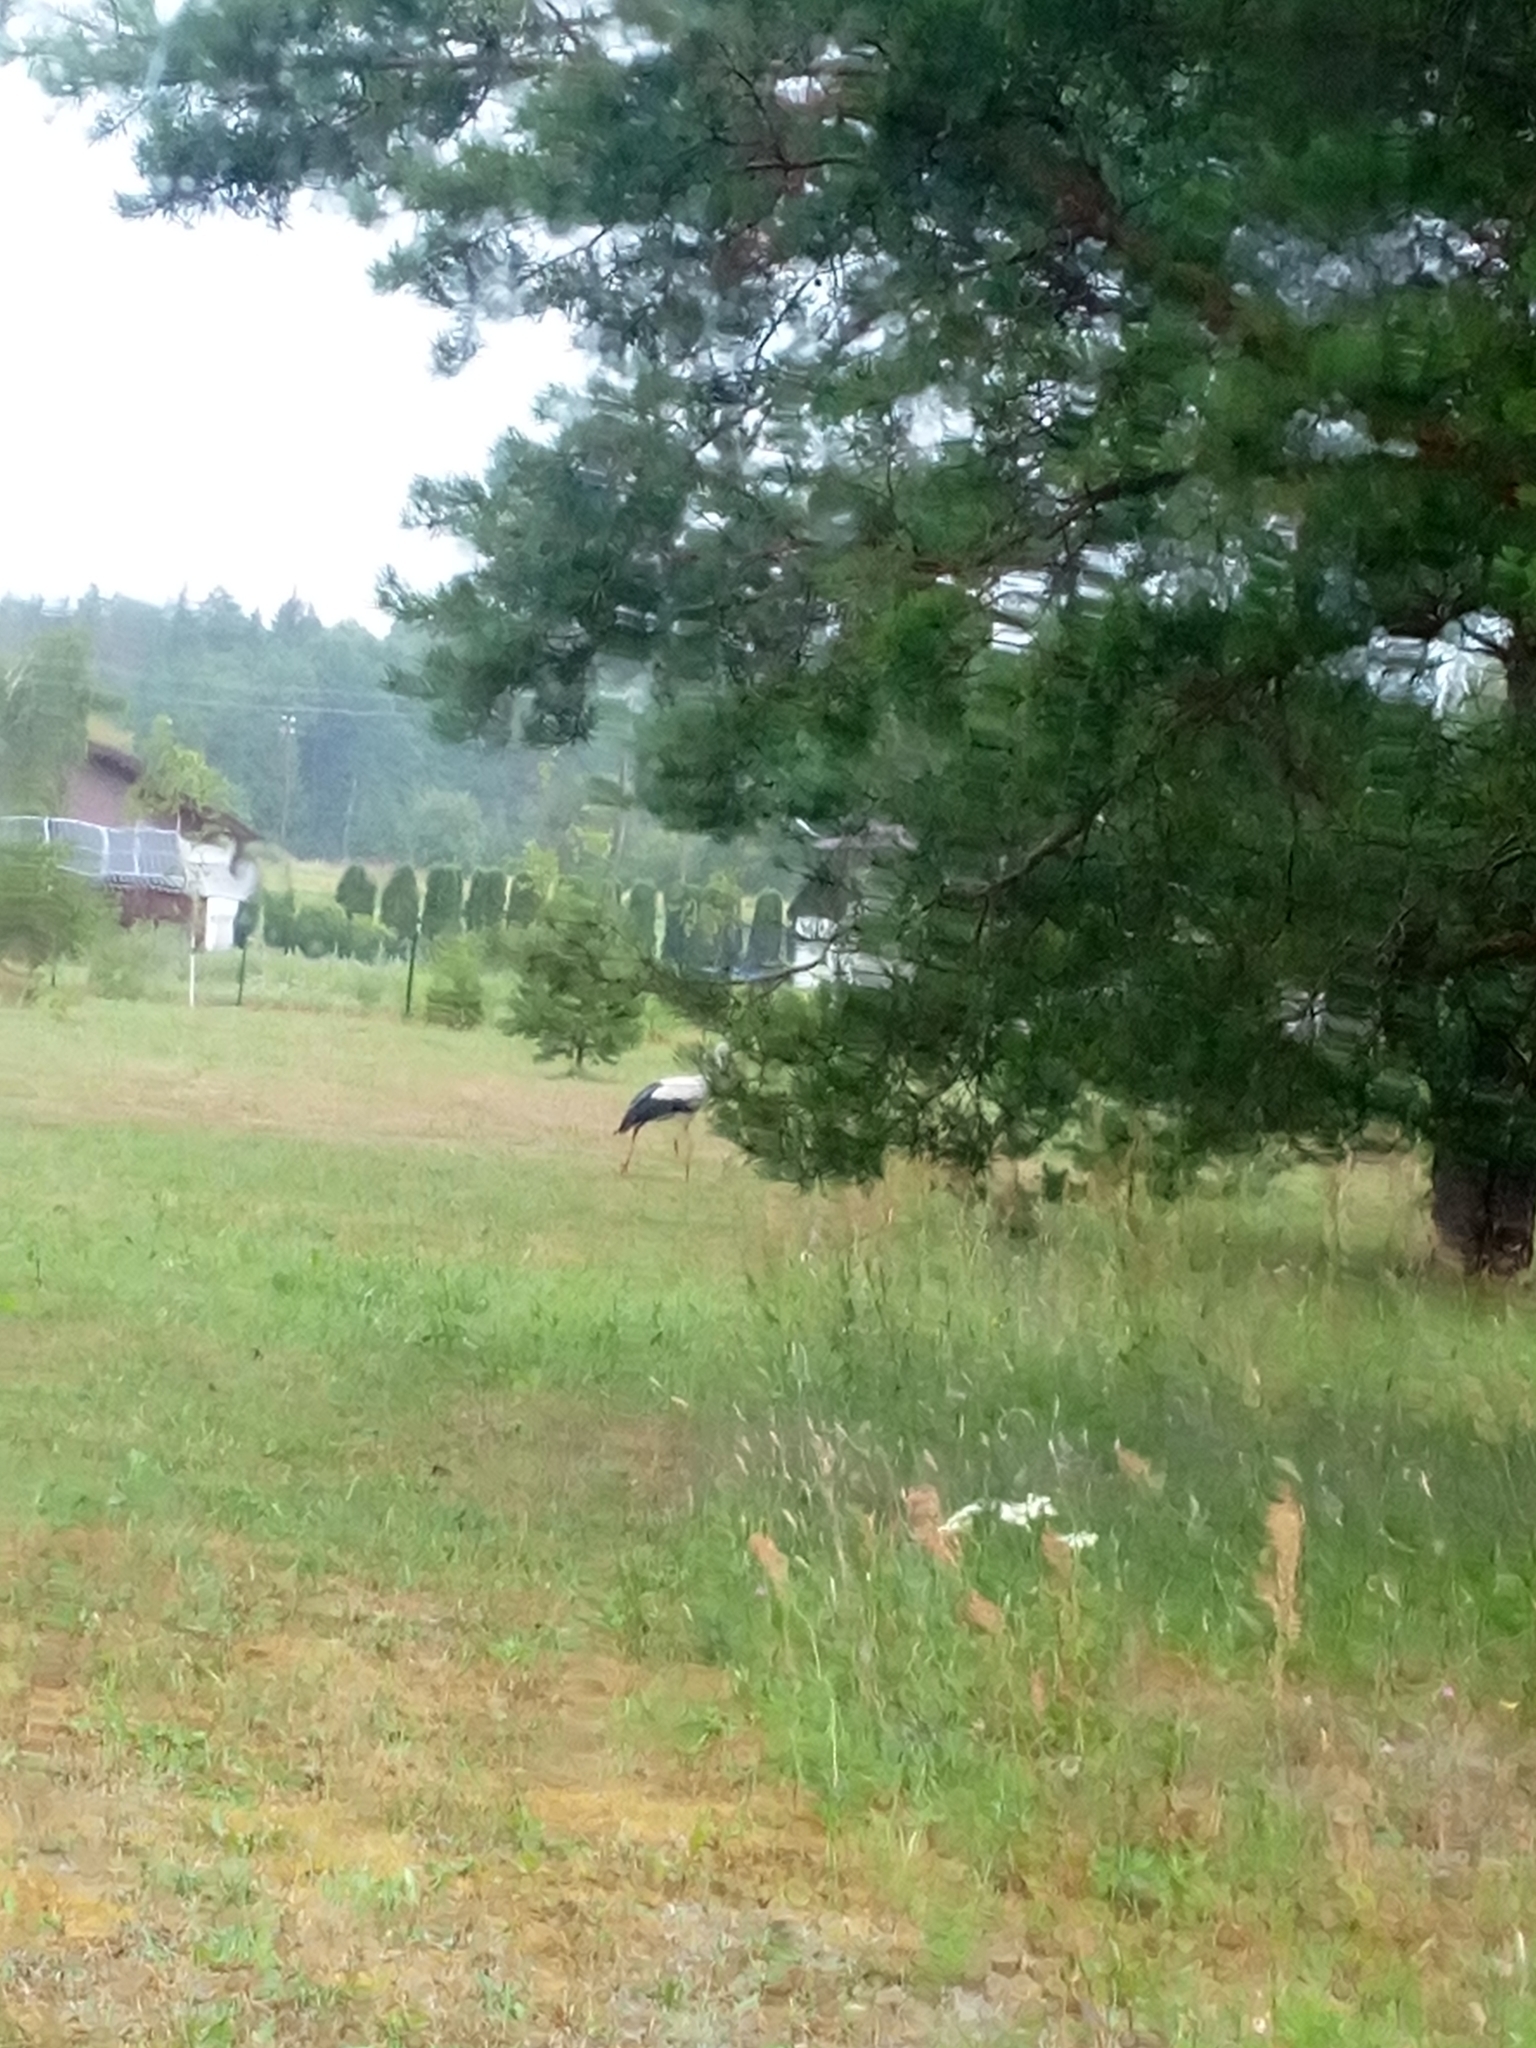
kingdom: Animalia
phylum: Chordata
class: Aves
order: Ciconiiformes
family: Ciconiidae
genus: Ciconia
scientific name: Ciconia ciconia
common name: White stork
